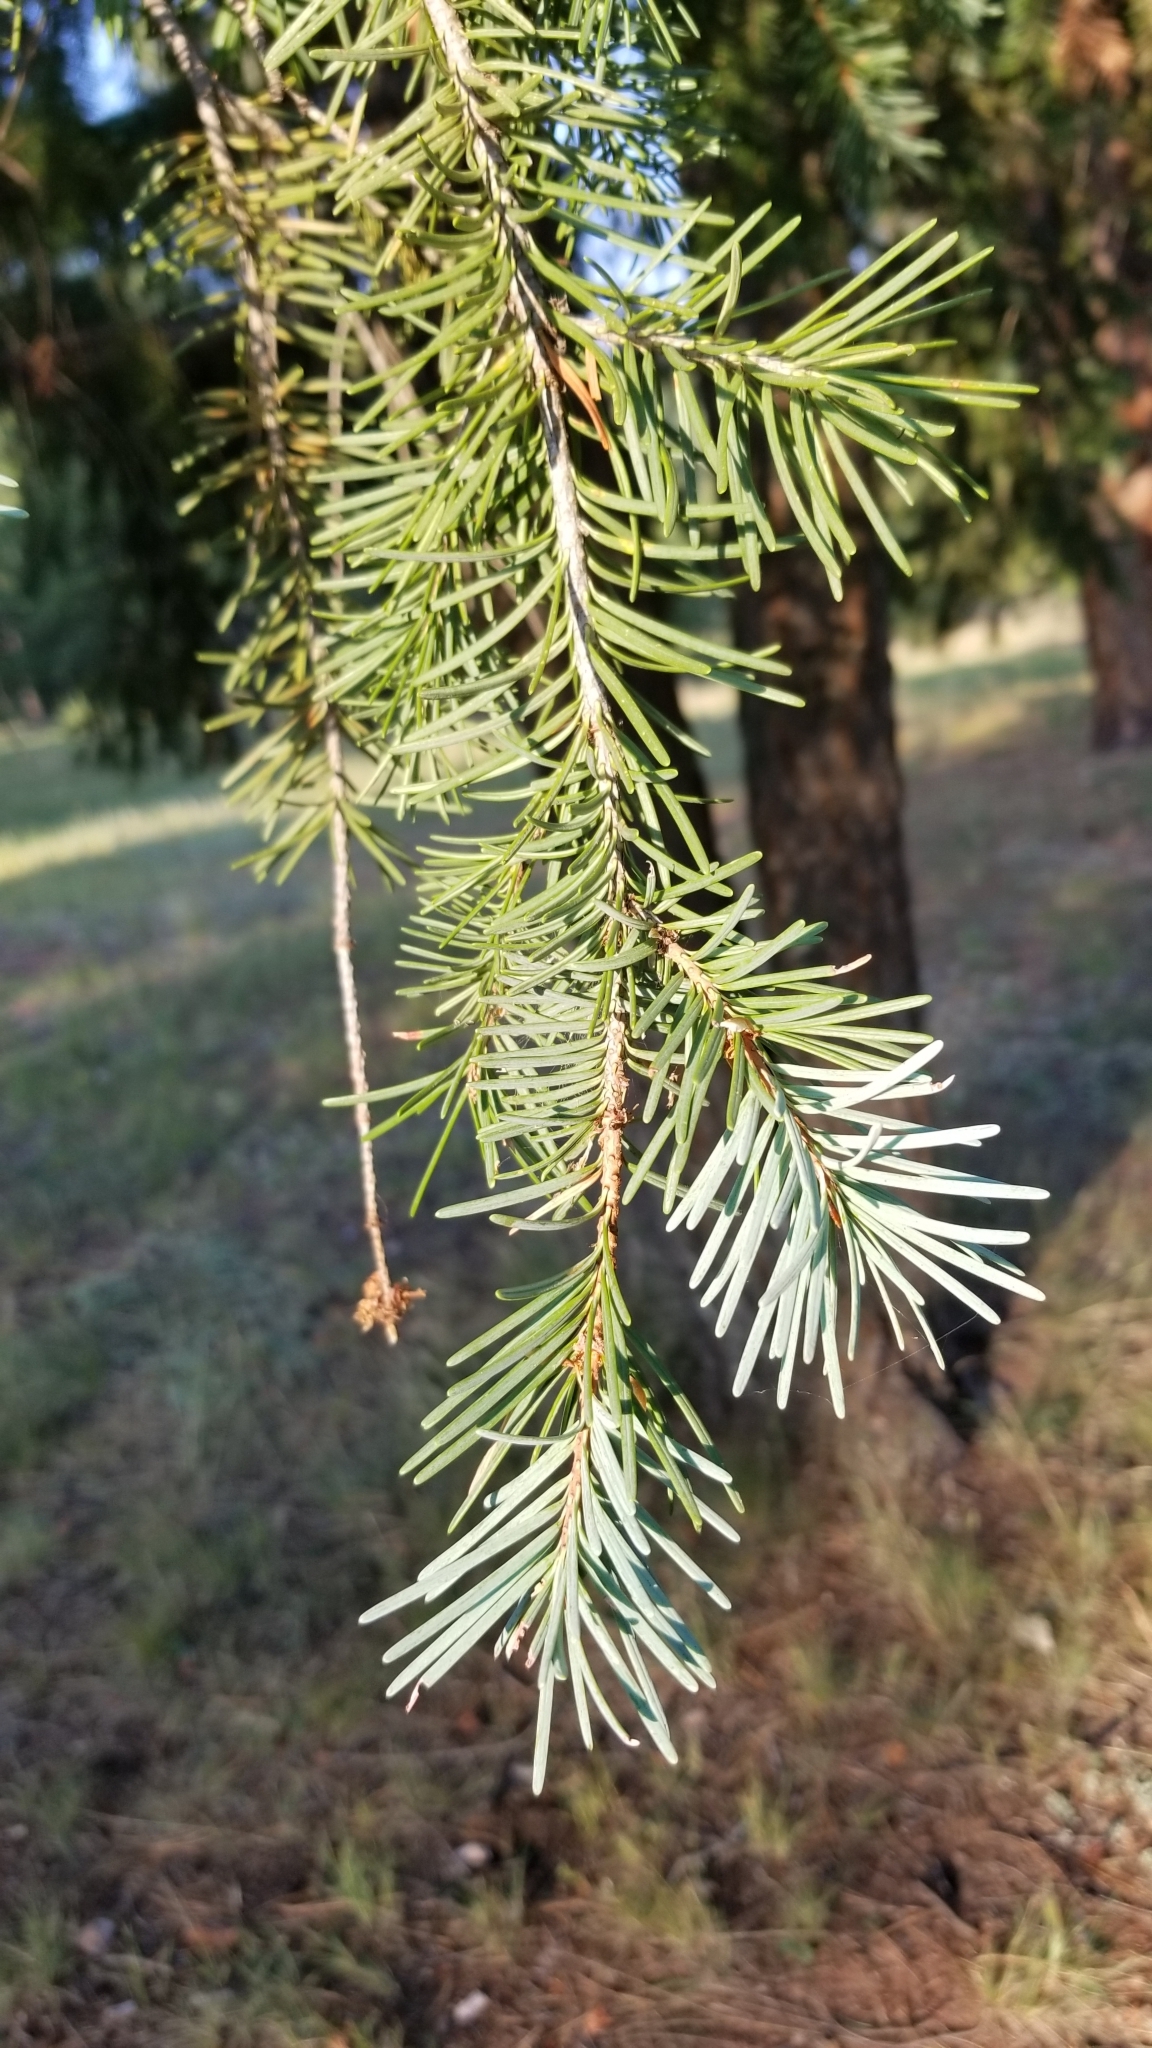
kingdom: Plantae
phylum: Tracheophyta
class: Pinopsida
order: Pinales
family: Pinaceae
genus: Pseudotsuga
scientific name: Pseudotsuga menziesii
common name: Douglas fir
